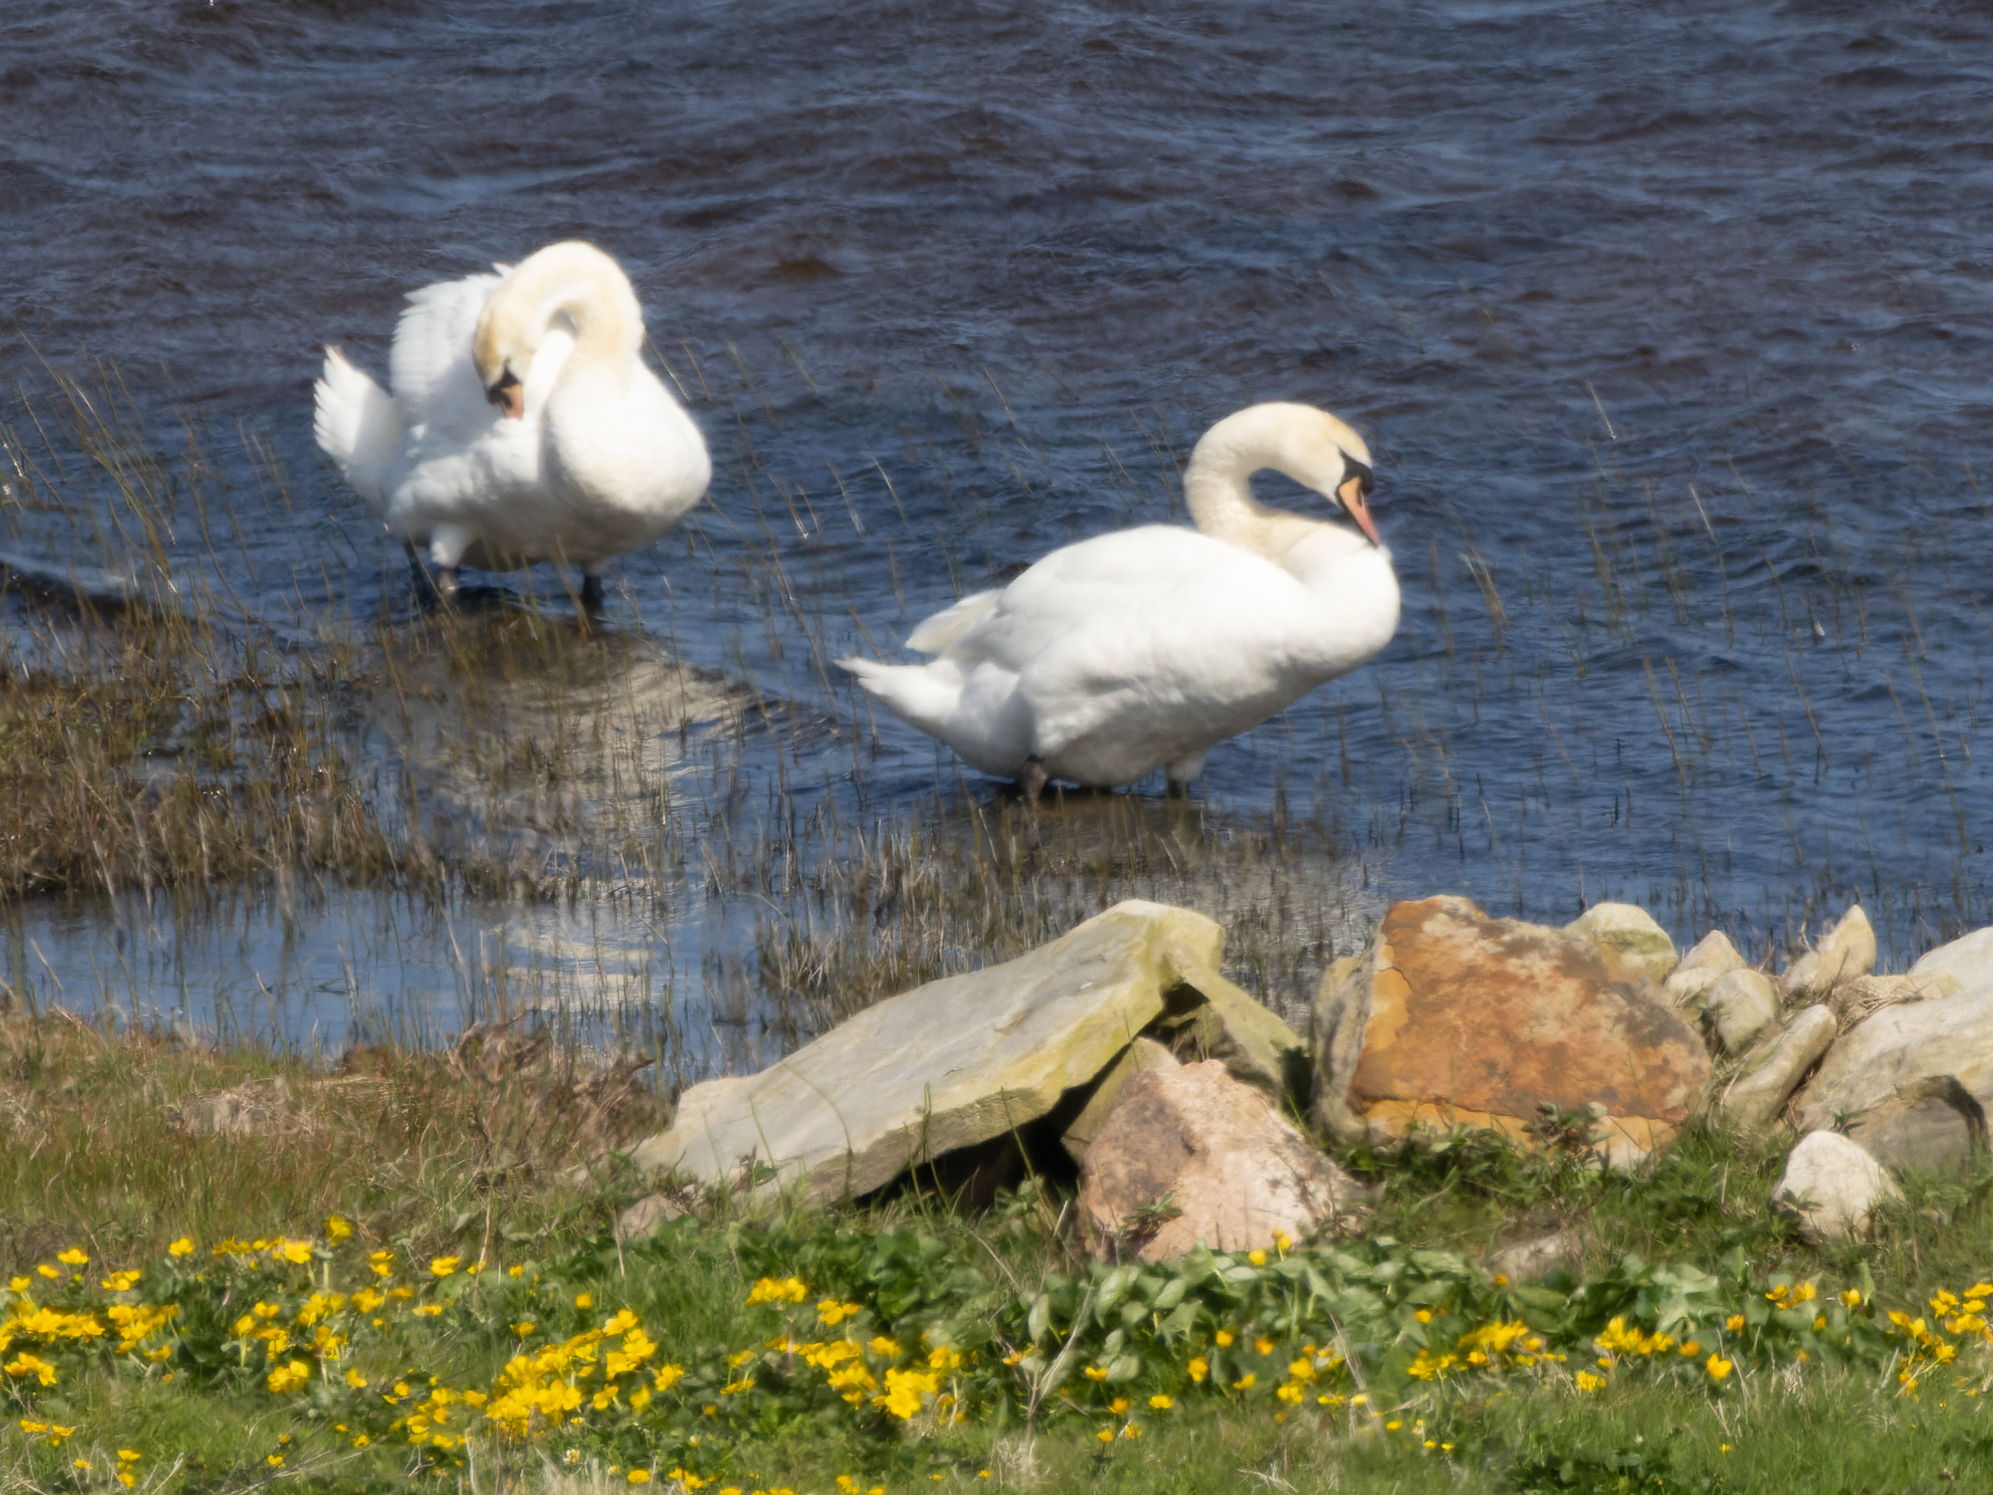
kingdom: Animalia
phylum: Chordata
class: Aves
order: Anseriformes
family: Anatidae
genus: Cygnus
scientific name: Cygnus olor
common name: Mute swan
